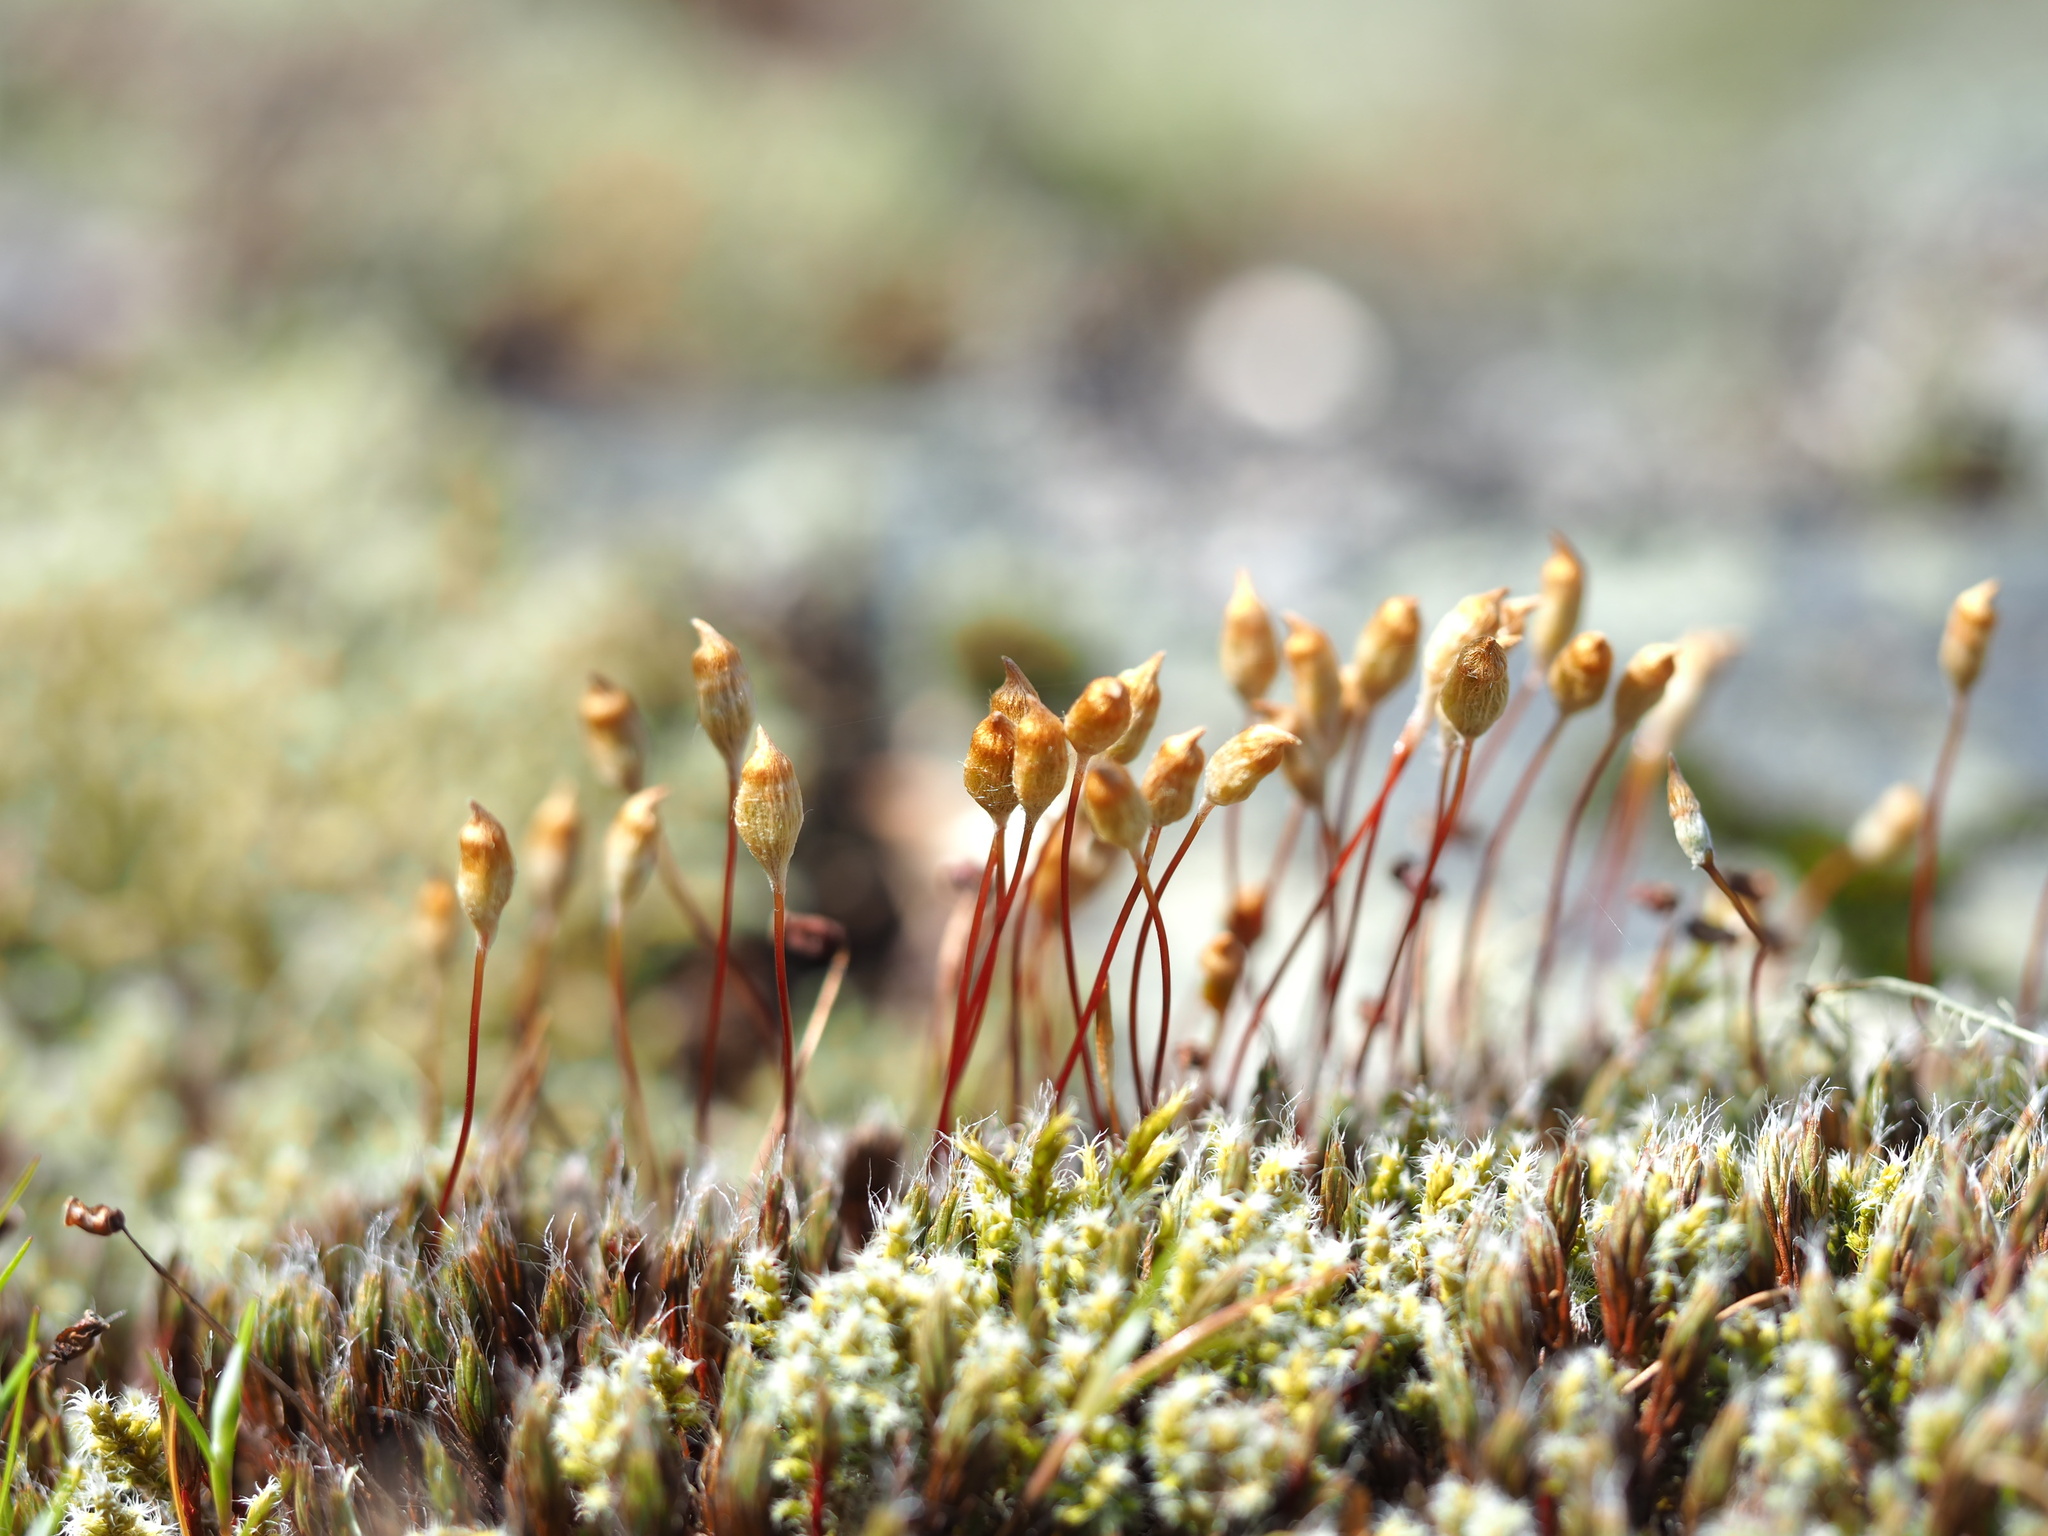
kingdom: Plantae
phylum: Bryophyta
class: Polytrichopsida
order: Polytrichales
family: Polytrichaceae
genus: Polytrichum
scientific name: Polytrichum piliferum
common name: Bristly haircap
